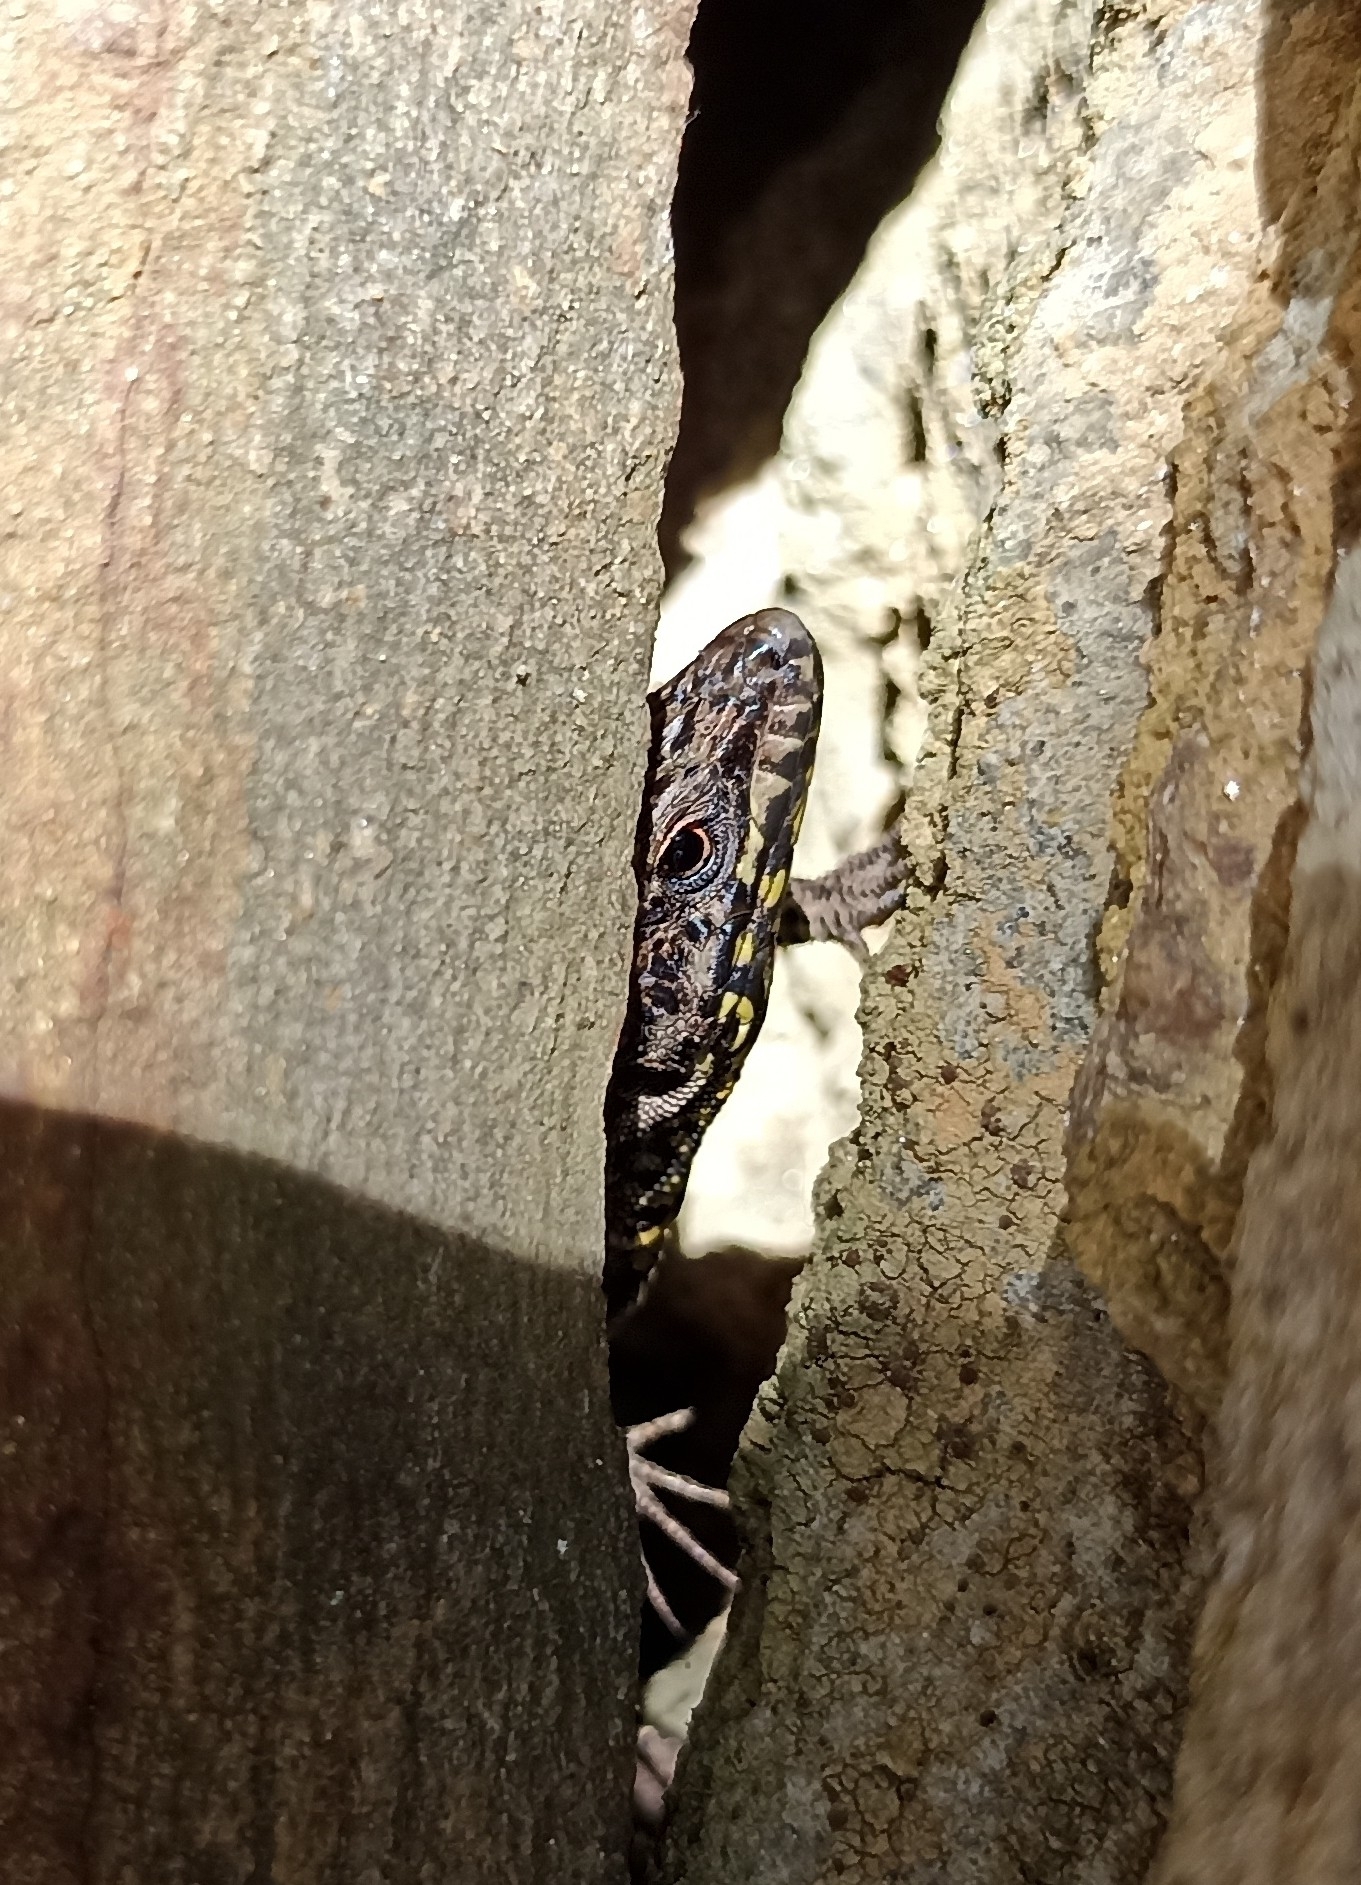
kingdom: Animalia
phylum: Chordata
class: Squamata
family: Lacertidae
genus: Podarcis
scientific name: Podarcis muralis
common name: Common wall lizard
